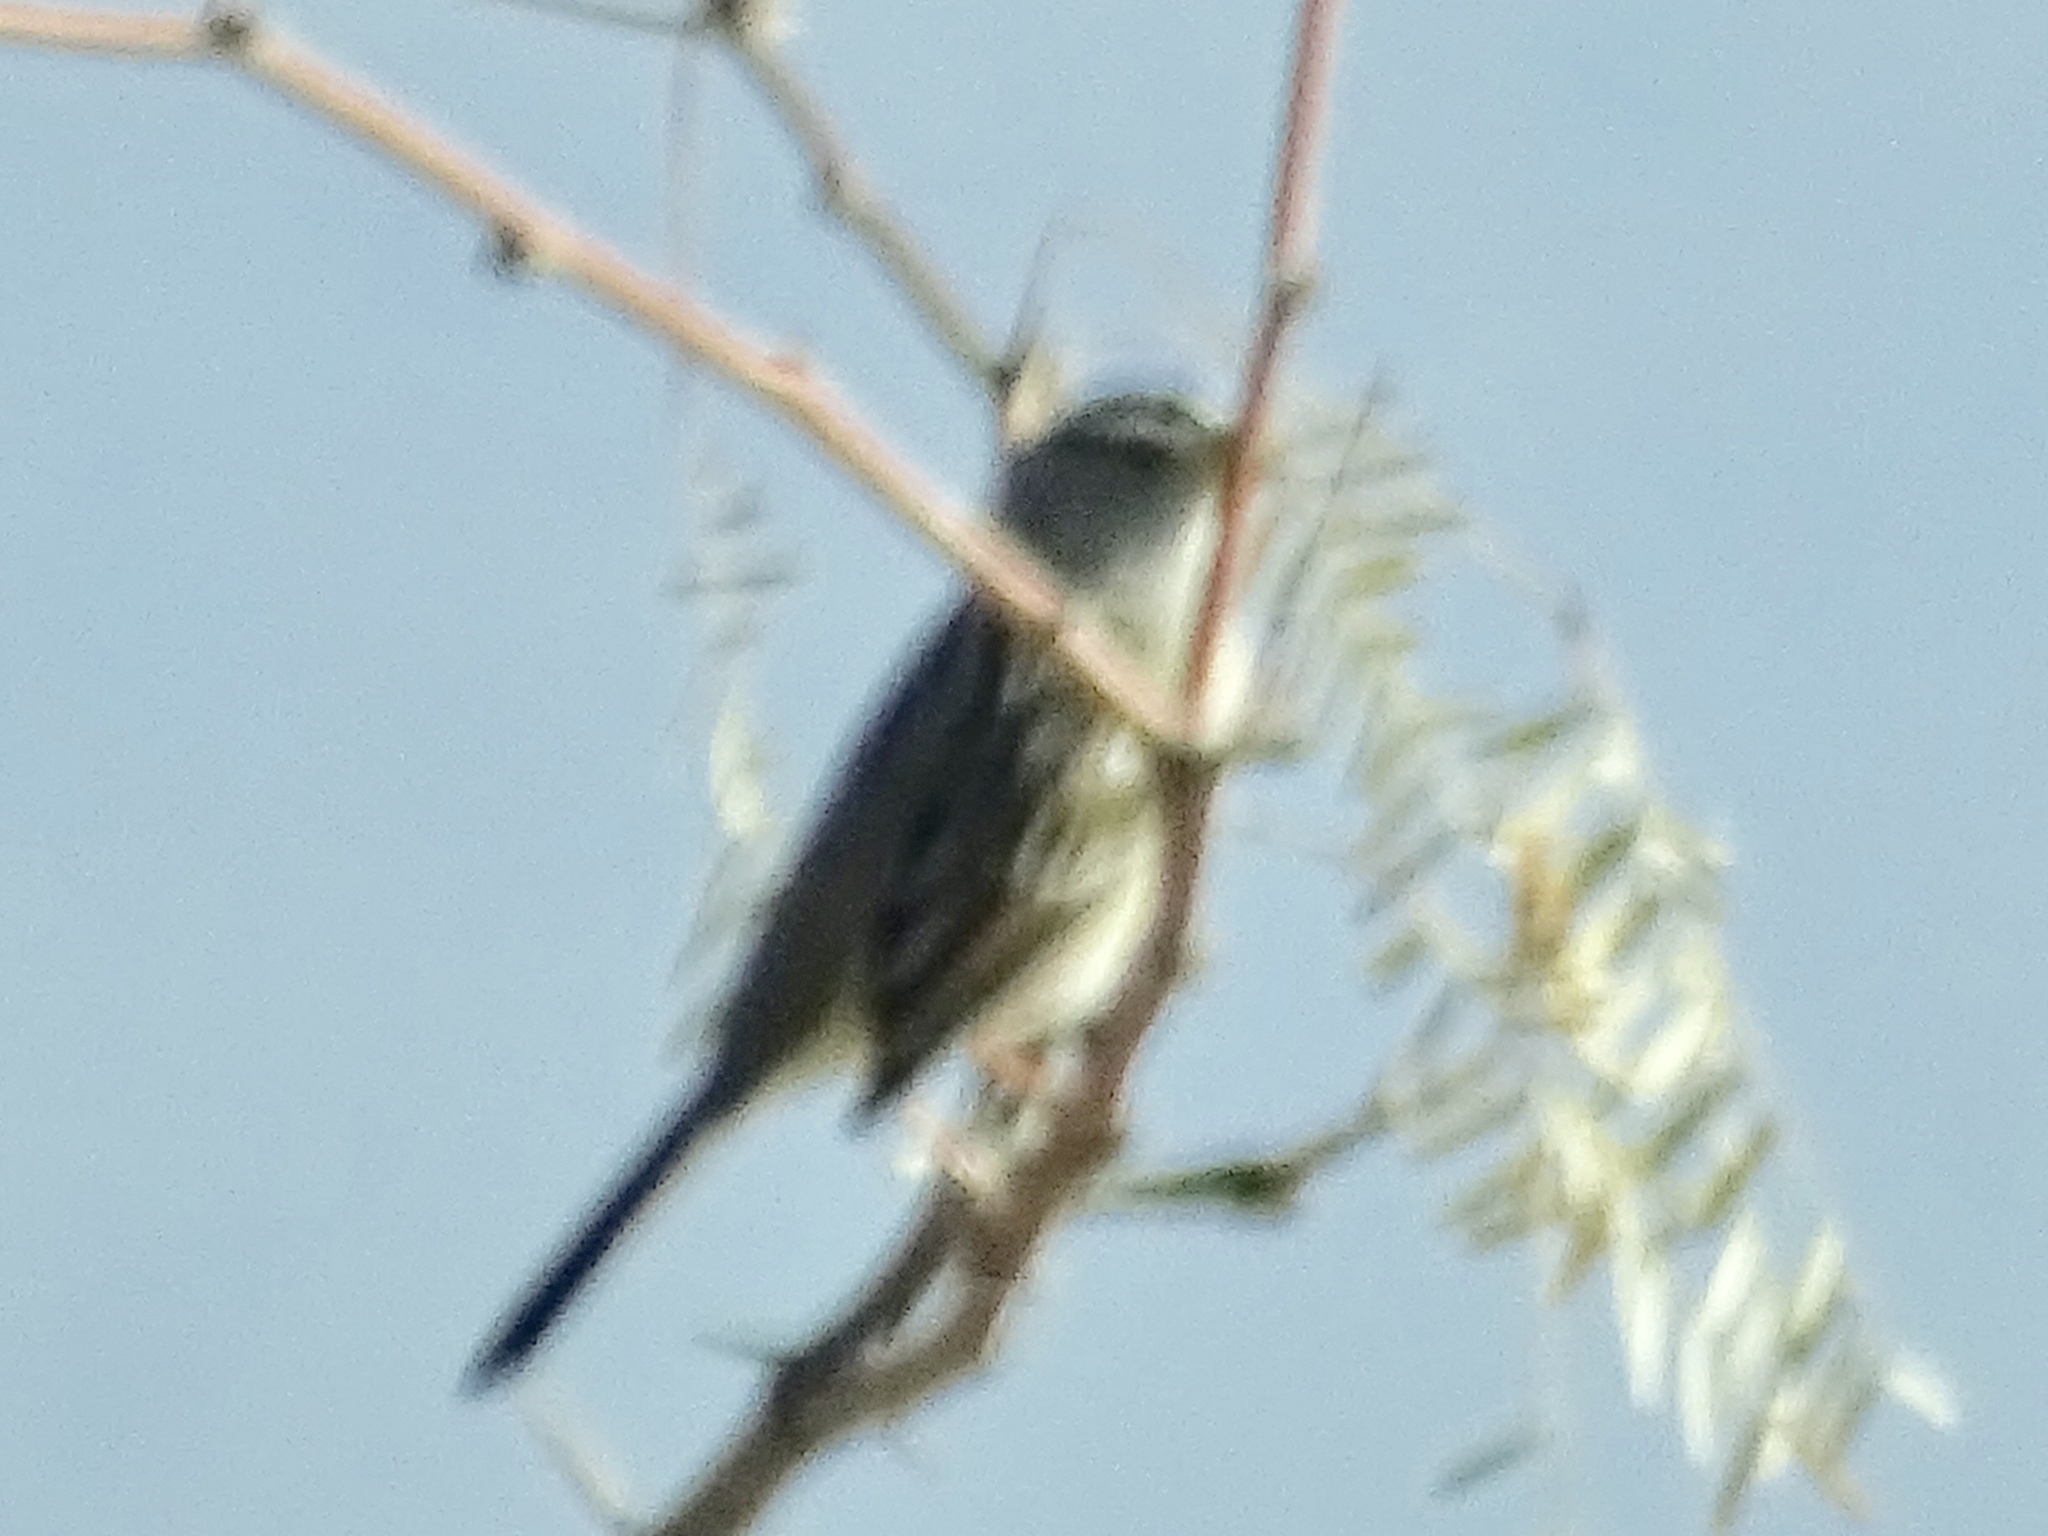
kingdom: Animalia
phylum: Chordata
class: Aves
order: Passeriformes
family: Passerellidae
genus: Zonotrichia
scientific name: Zonotrichia leucophrys
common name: White-crowned sparrow
